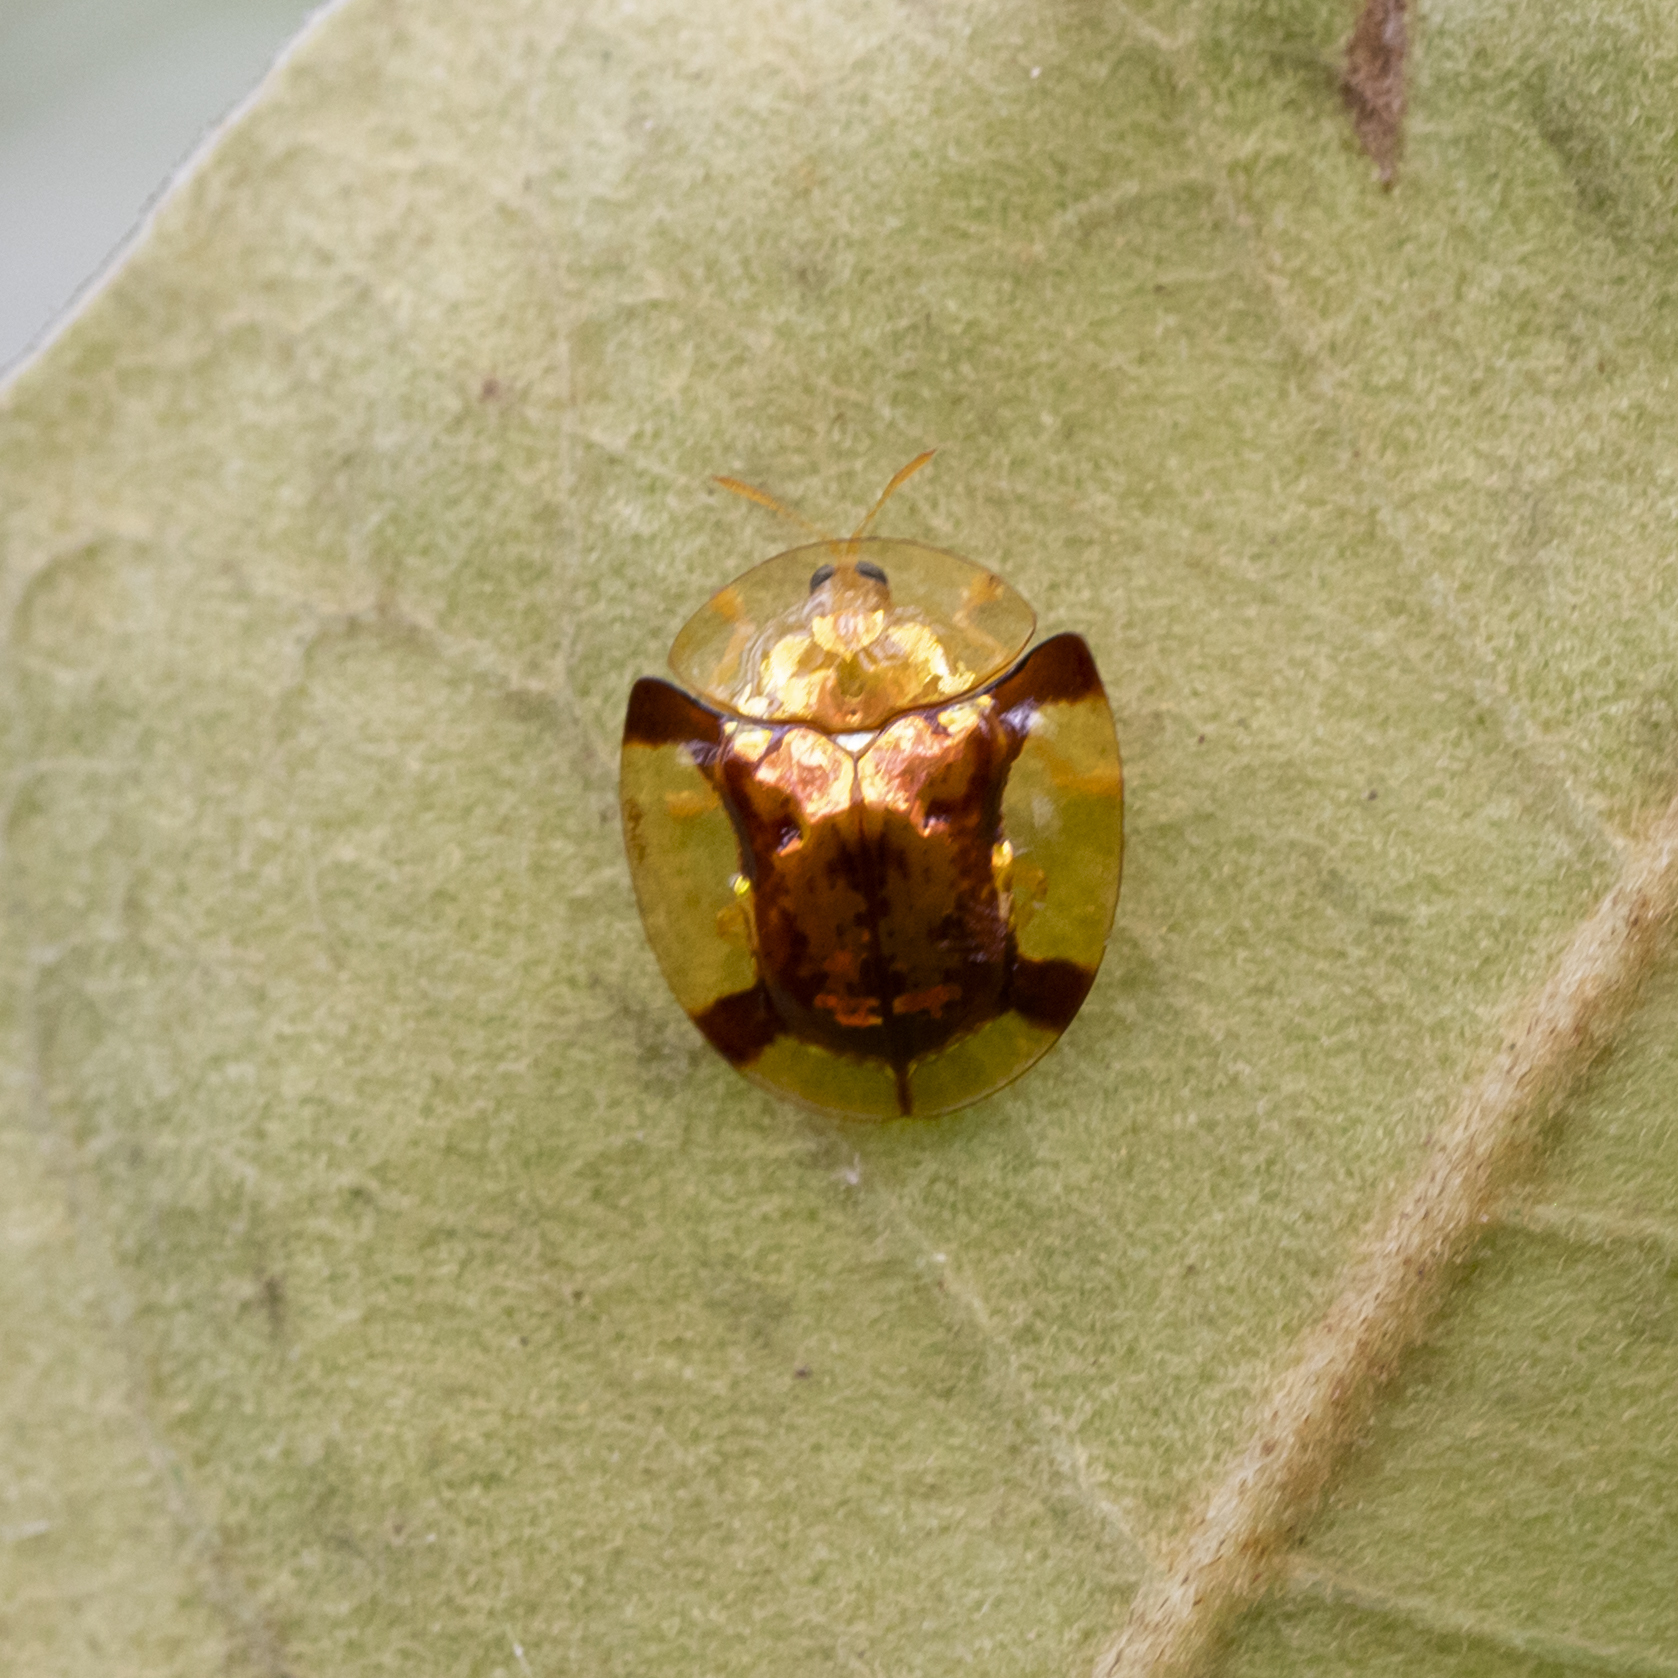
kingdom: Animalia
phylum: Arthropoda
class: Insecta
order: Coleoptera
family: Chrysomelidae
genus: Aspidimorpha
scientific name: Aspidimorpha quadriradiata
